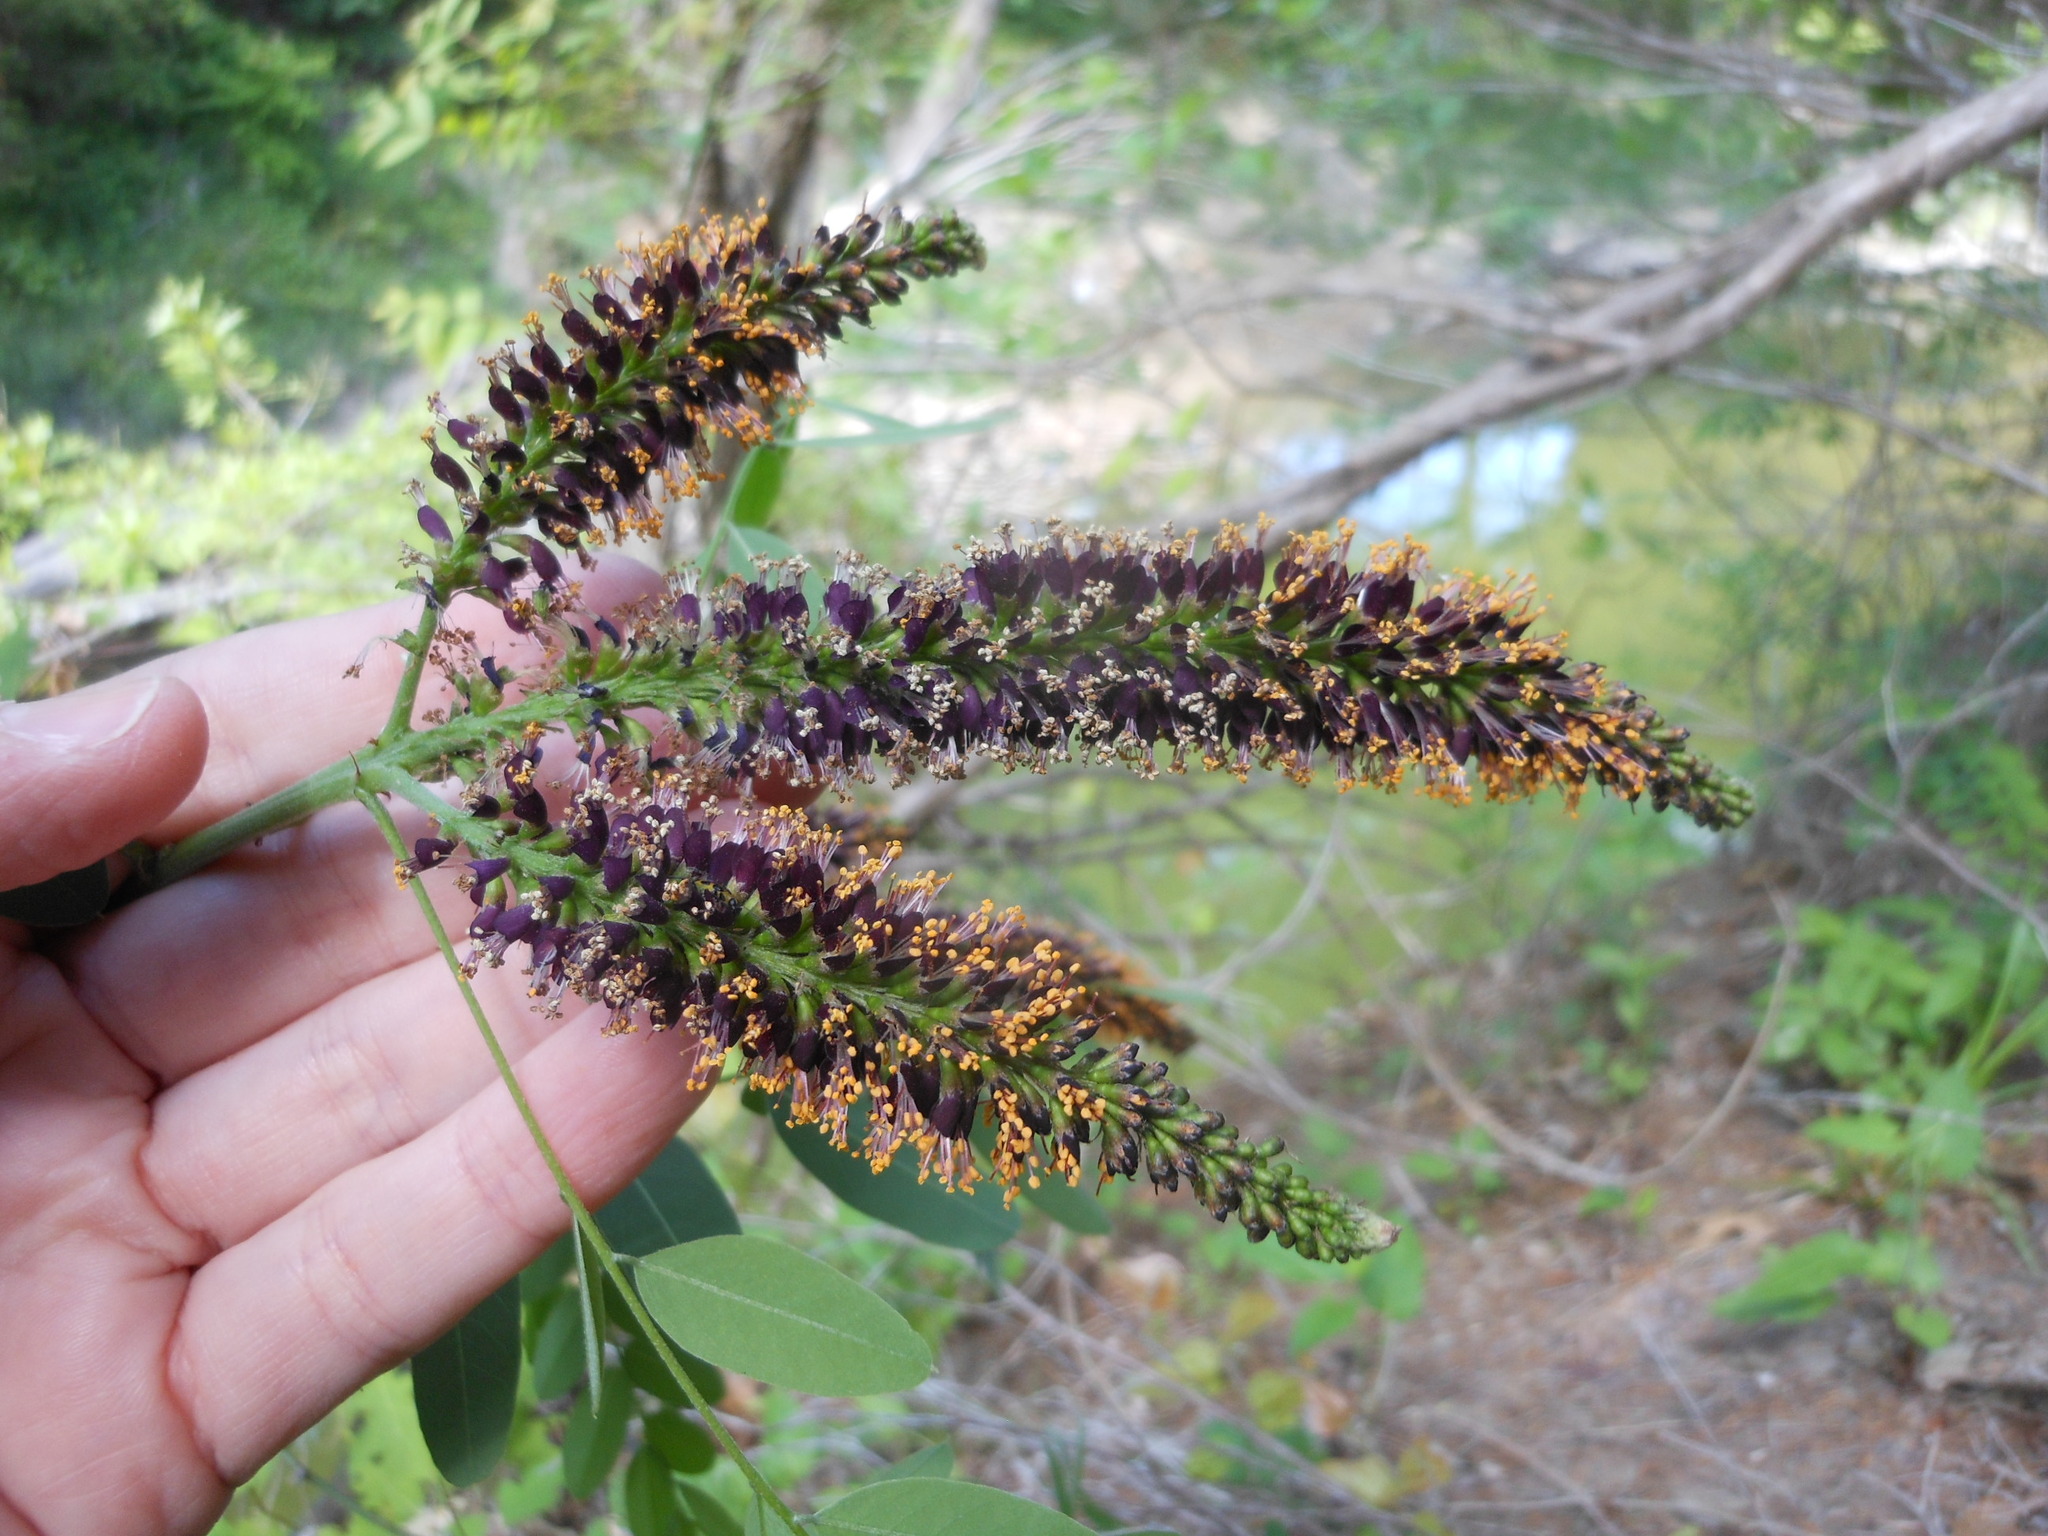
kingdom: Plantae
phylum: Tracheophyta
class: Magnoliopsida
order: Fabales
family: Fabaceae
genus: Amorpha
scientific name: Amorpha fruticosa
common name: False indigo
